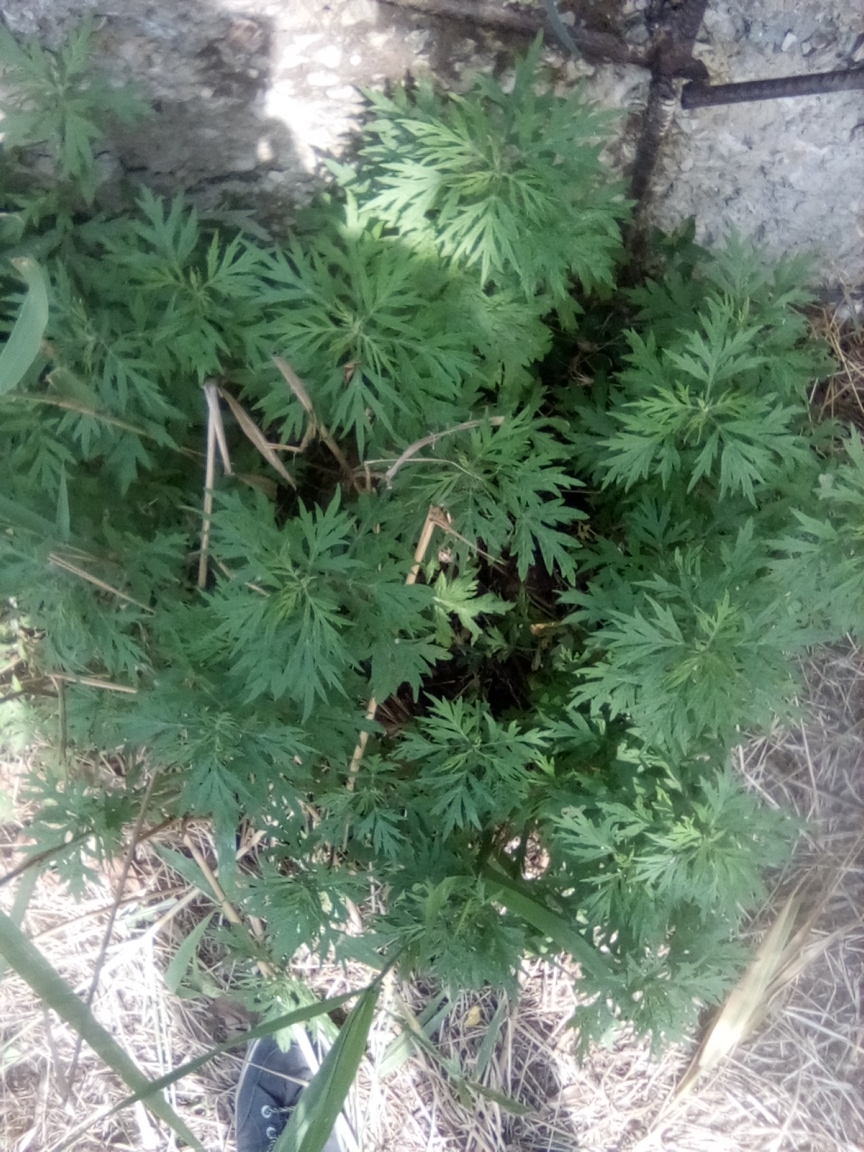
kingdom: Plantae
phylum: Tracheophyta
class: Magnoliopsida
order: Asterales
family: Asteraceae
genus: Artemisia
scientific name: Artemisia vulgaris
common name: Mugwort
